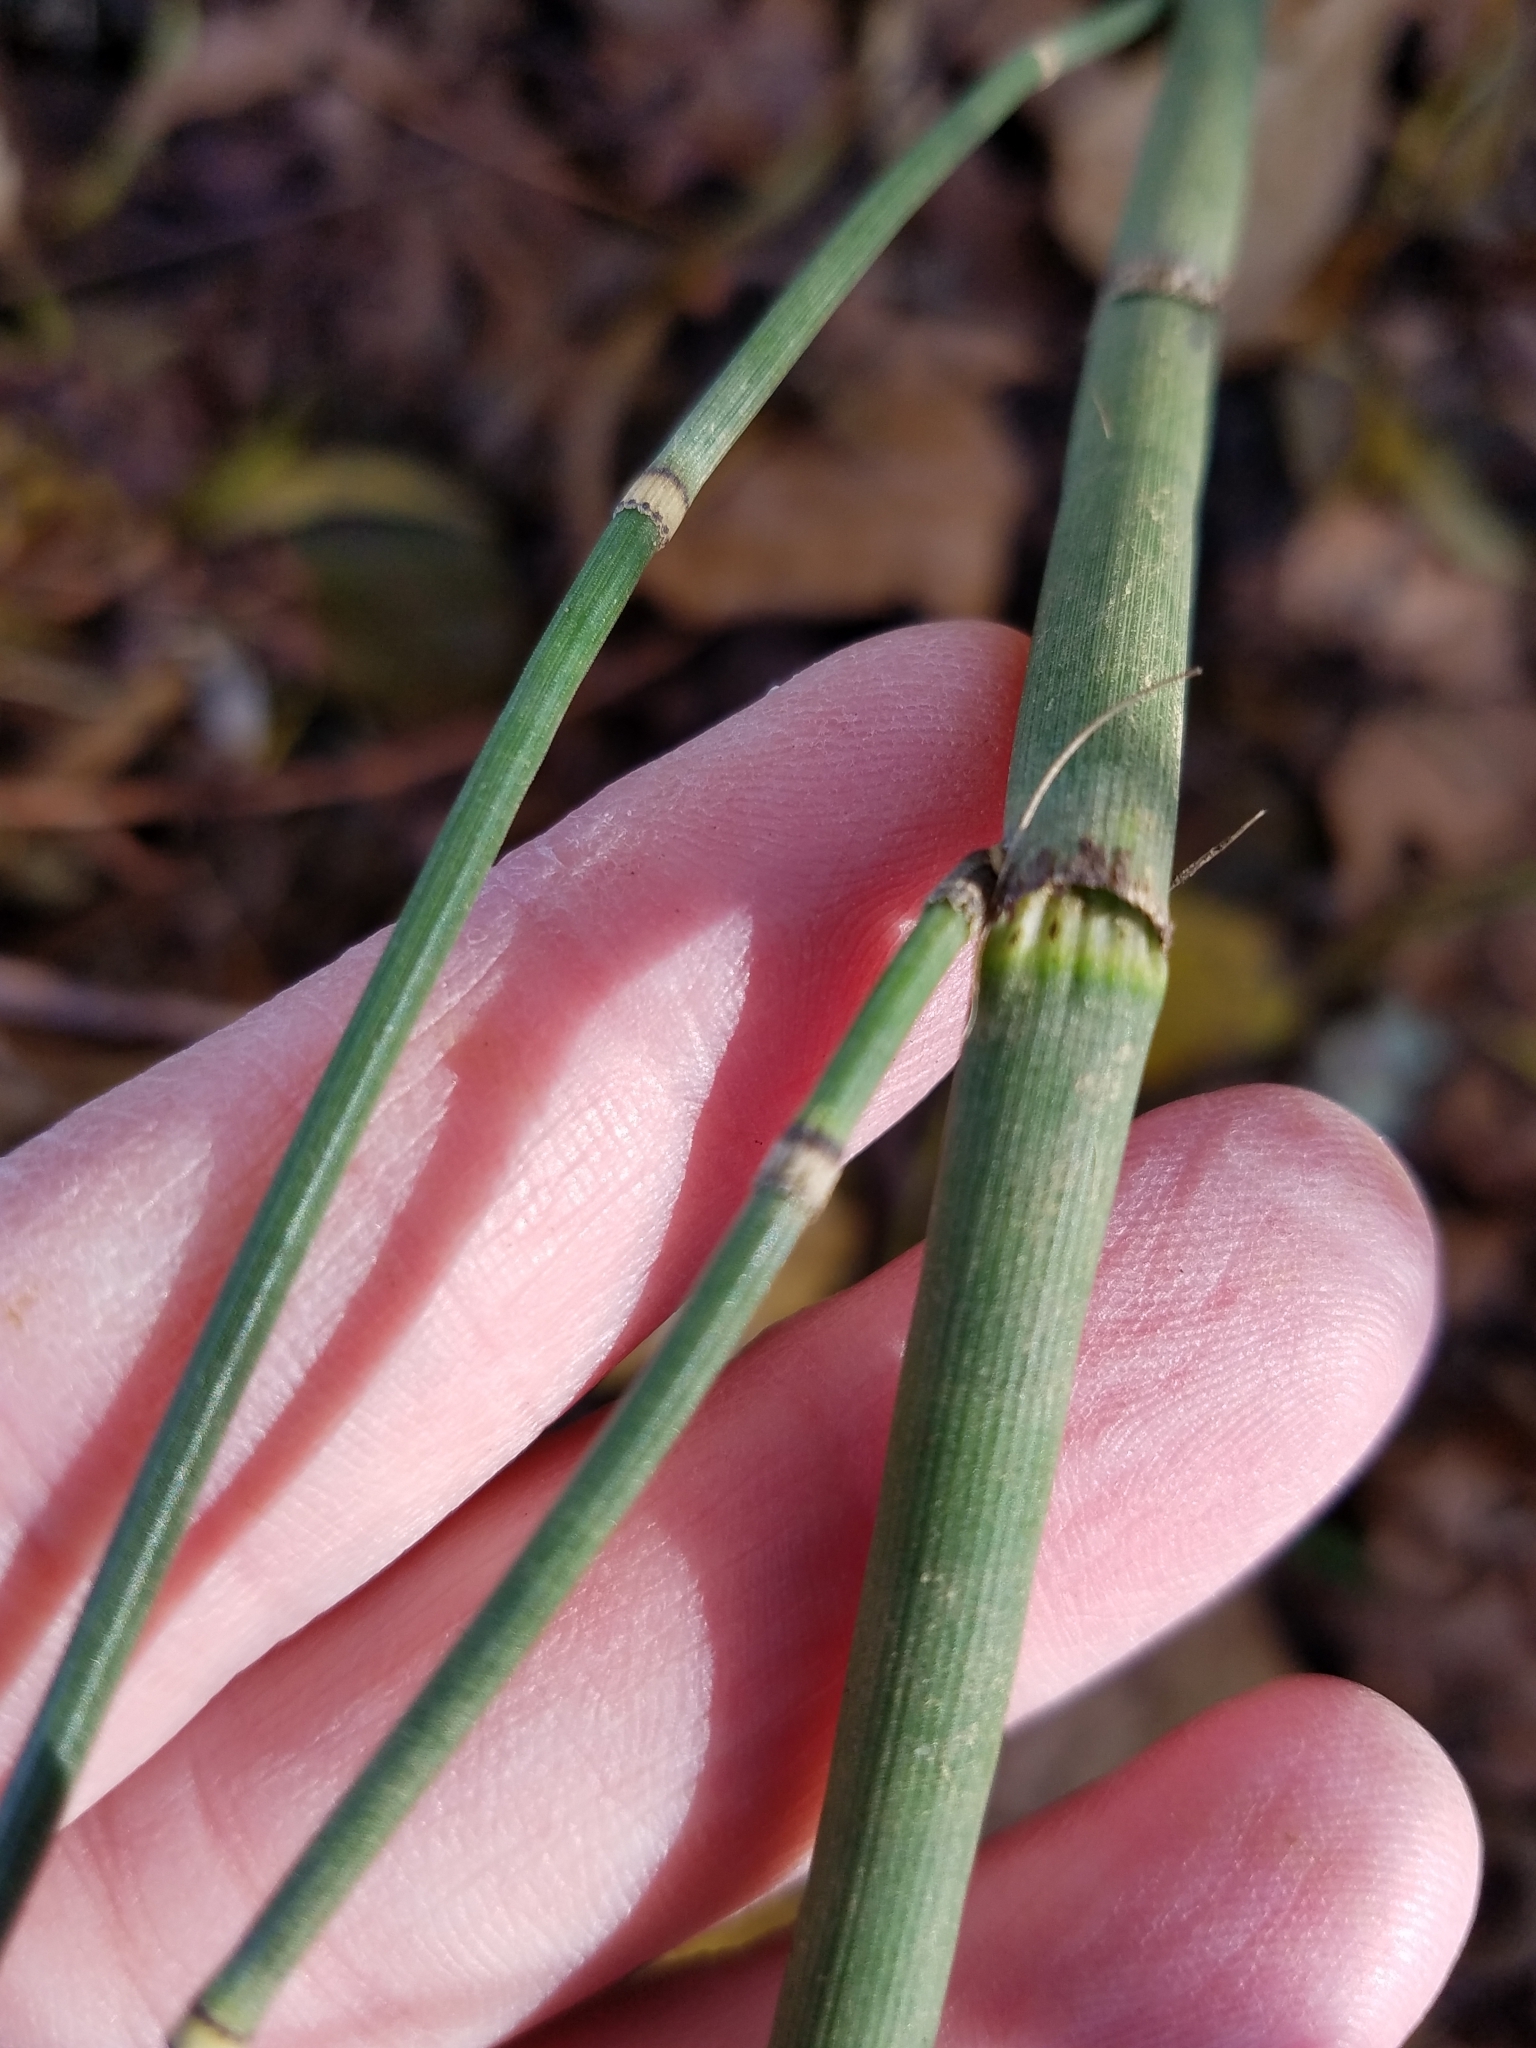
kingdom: Plantae
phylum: Tracheophyta
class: Polypodiopsida
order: Equisetales
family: Equisetaceae
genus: Equisetum
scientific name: Equisetum hyemale
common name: Rough horsetail
